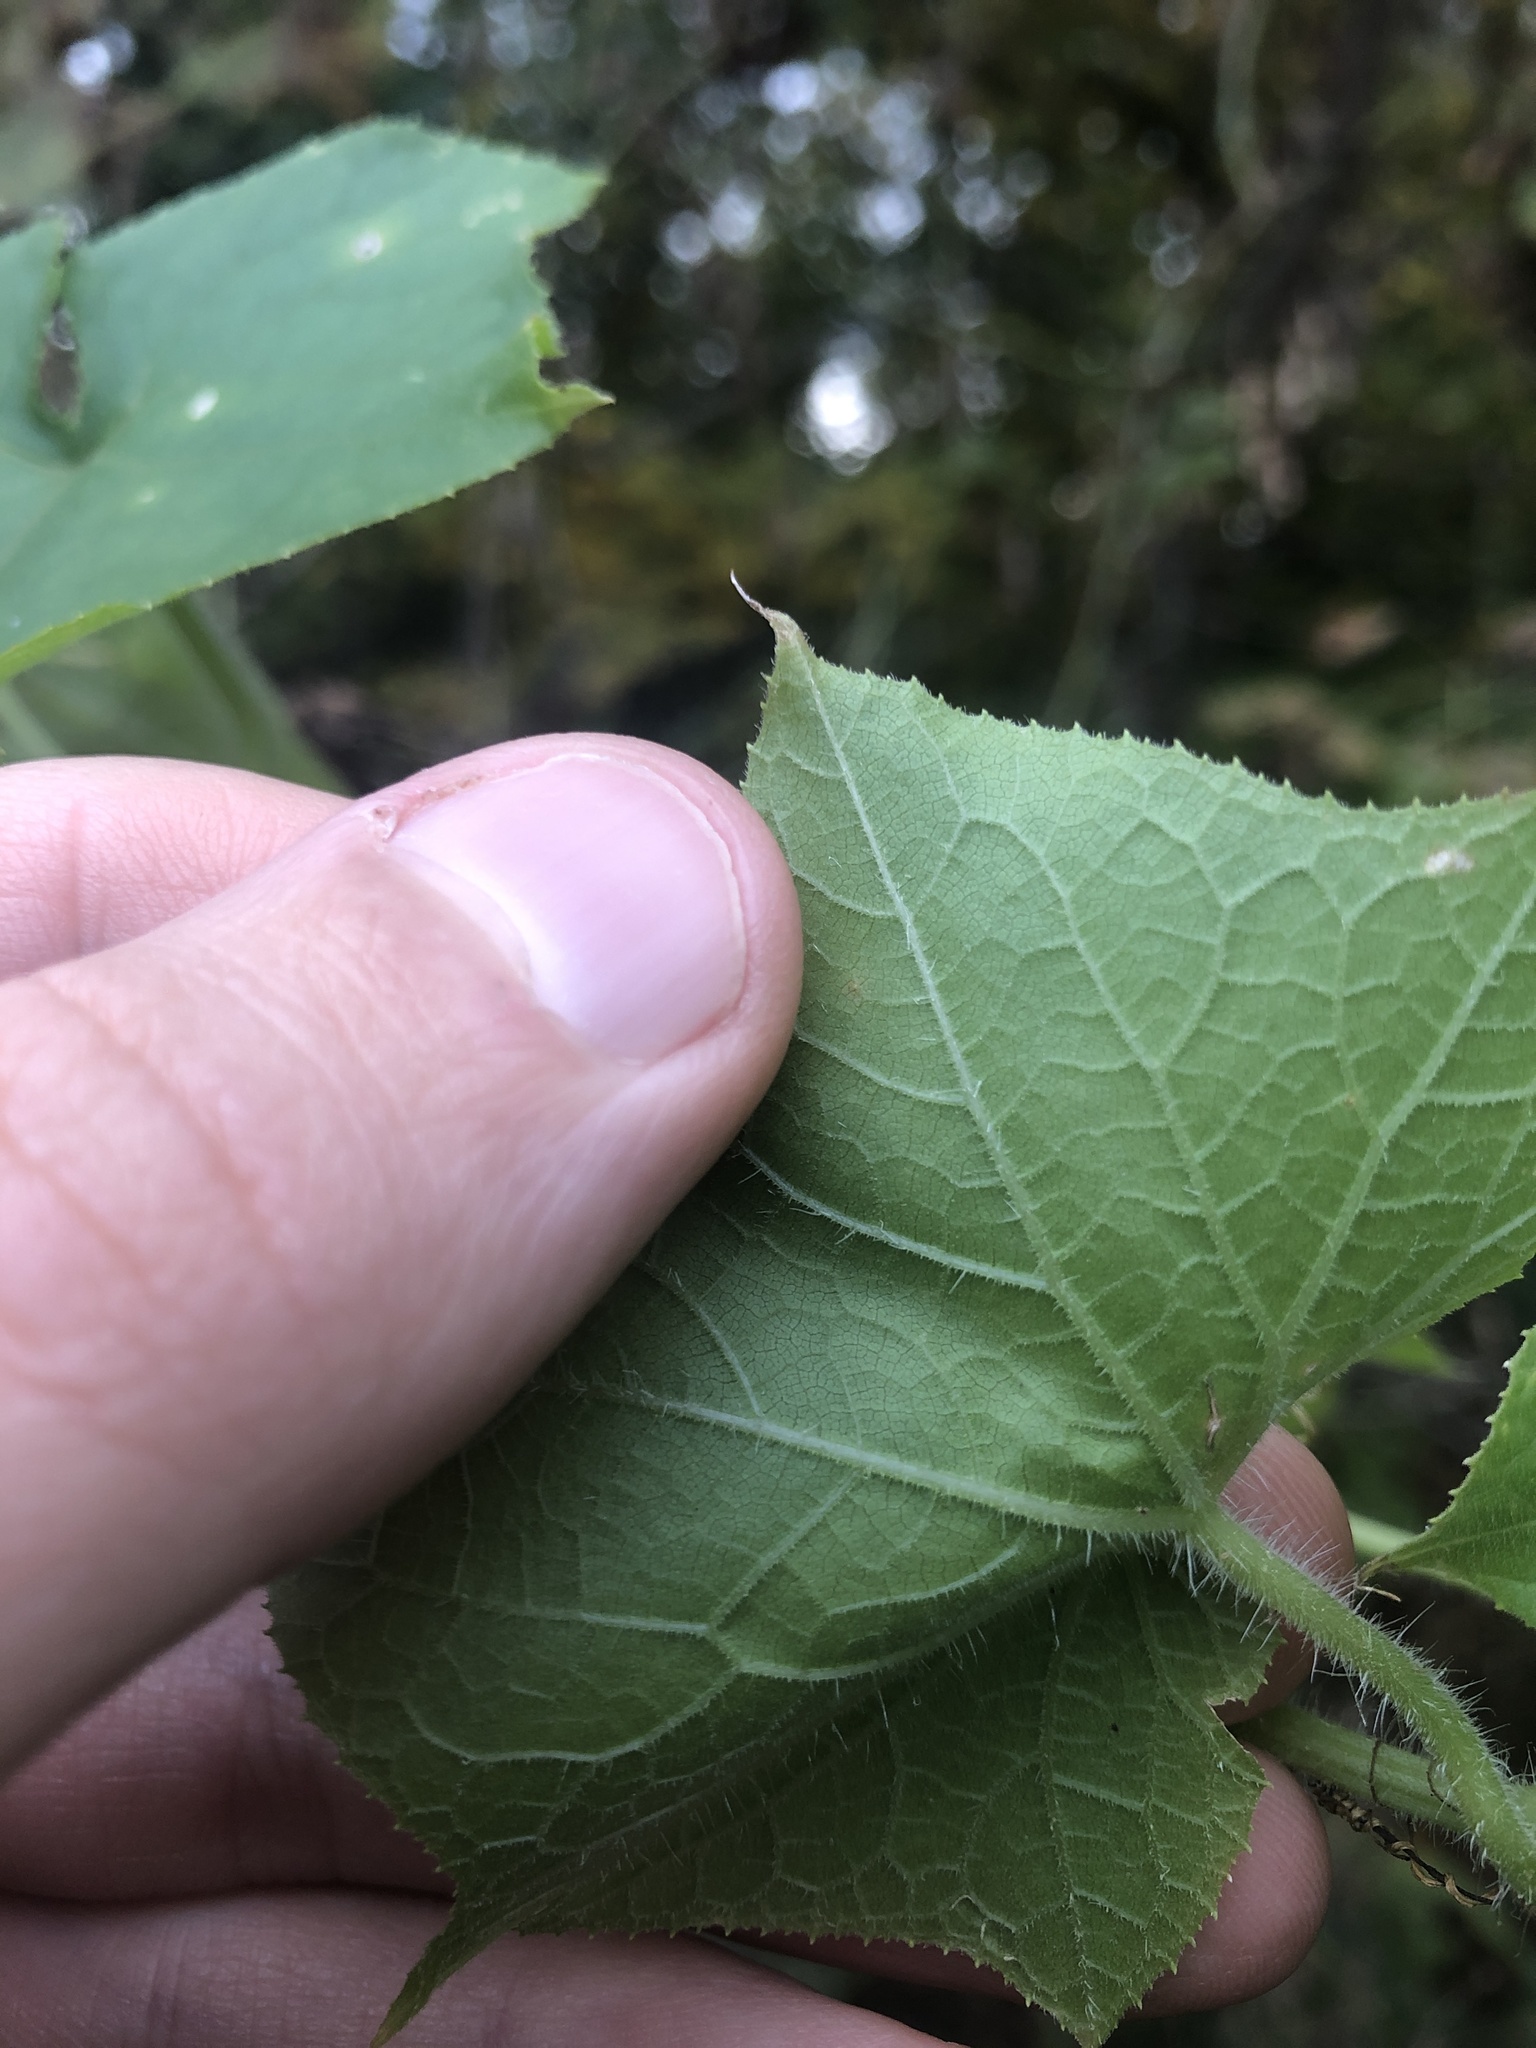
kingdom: Plantae
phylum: Tracheophyta
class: Magnoliopsida
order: Cucurbitales
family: Cucurbitaceae
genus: Sicyos
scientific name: Sicyos angulatus
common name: Angled burr cucumber
